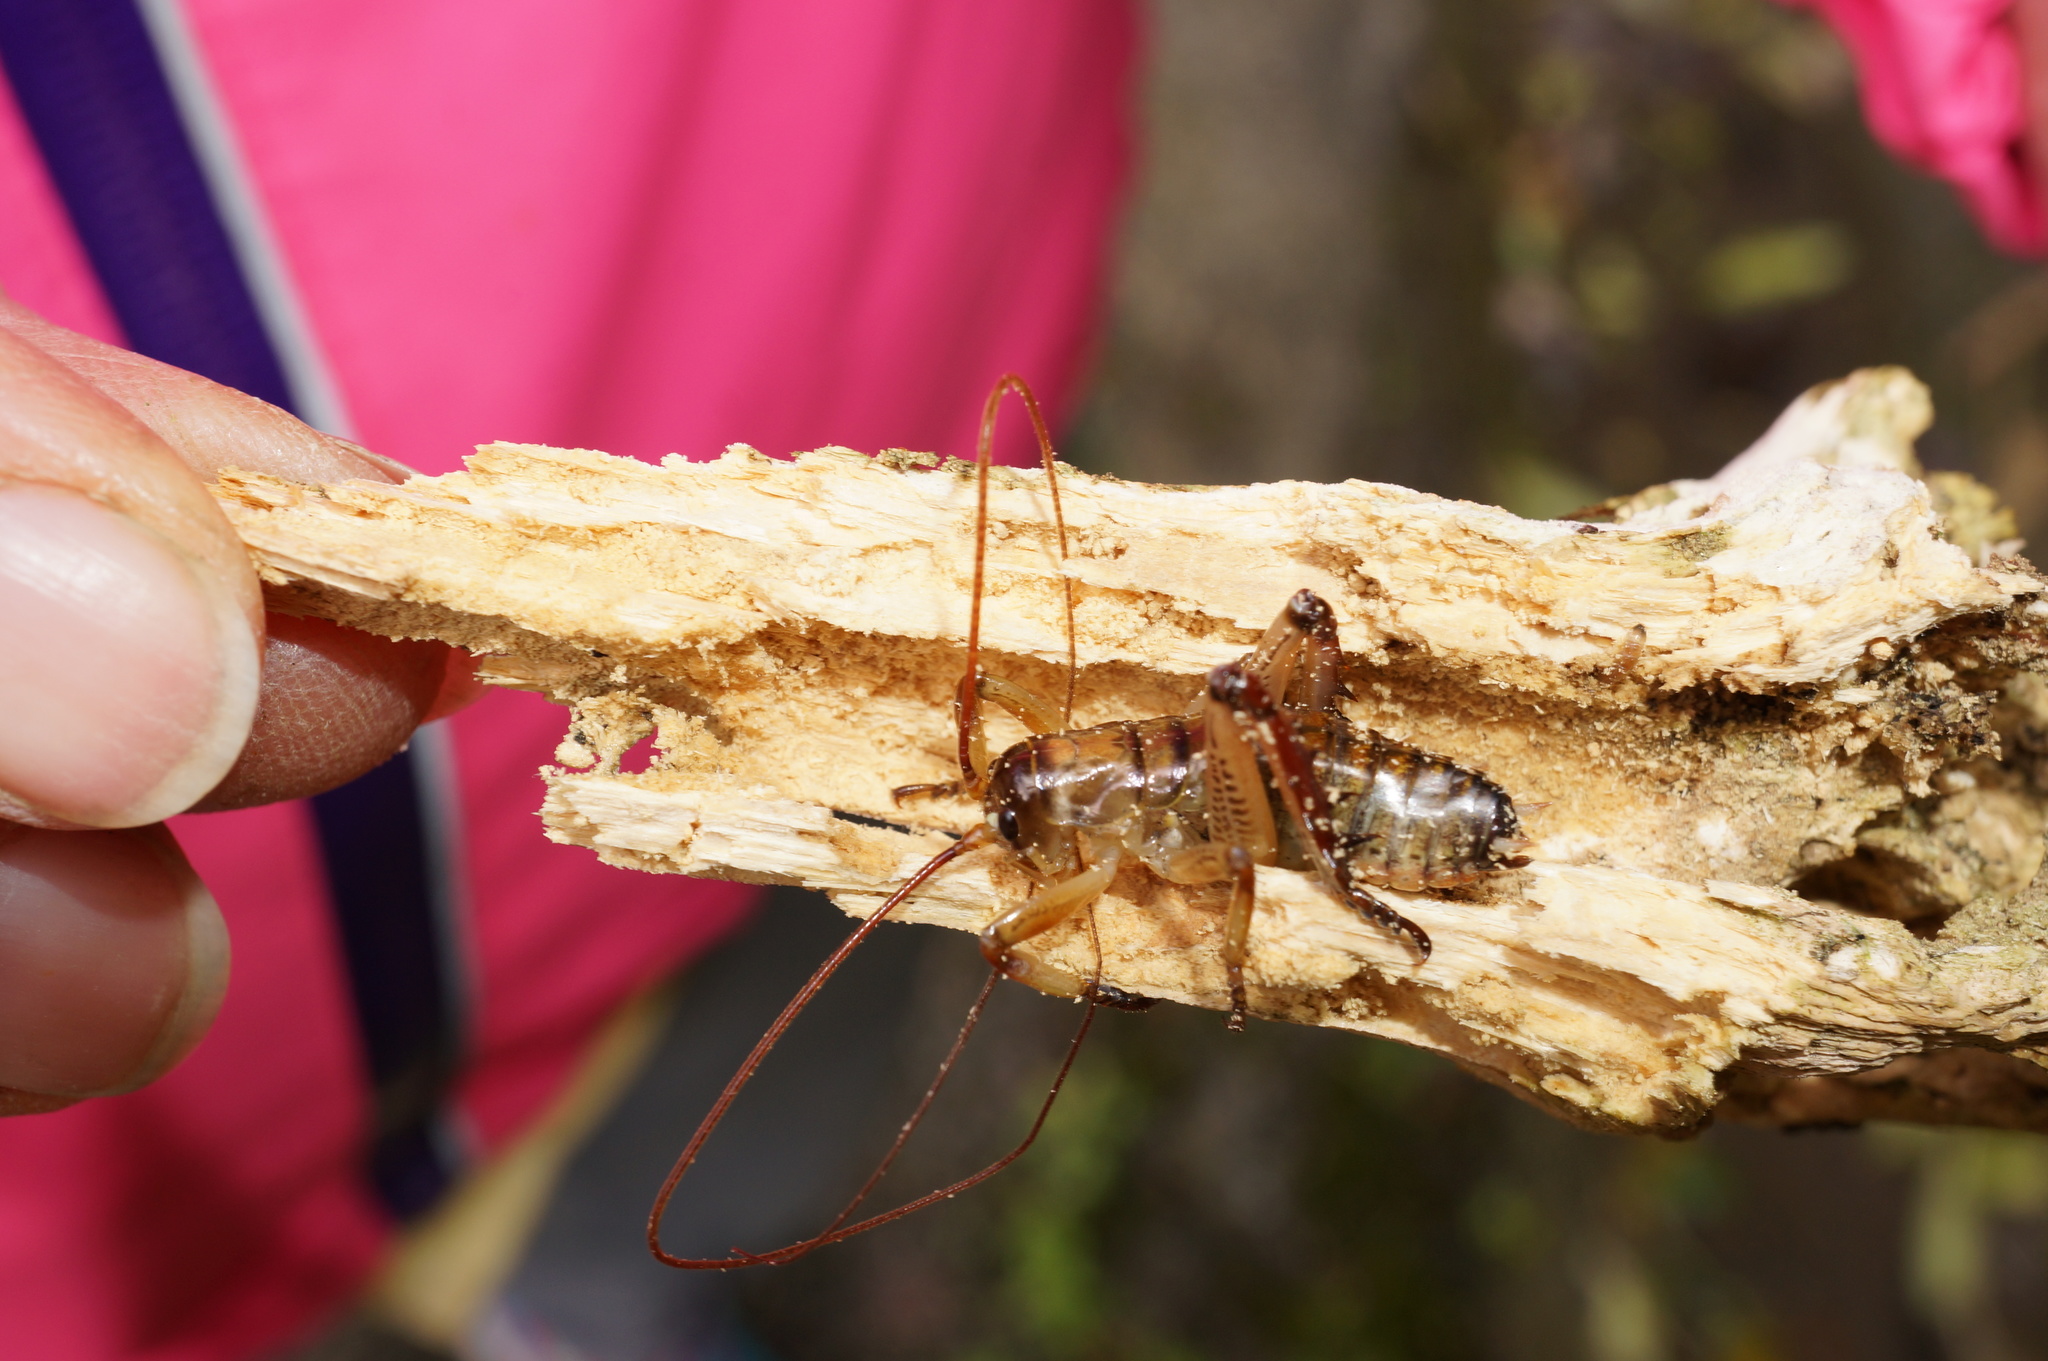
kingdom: Animalia
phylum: Arthropoda
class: Insecta
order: Orthoptera
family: Anostostomatidae
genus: Hemideina
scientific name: Hemideina thoracica
